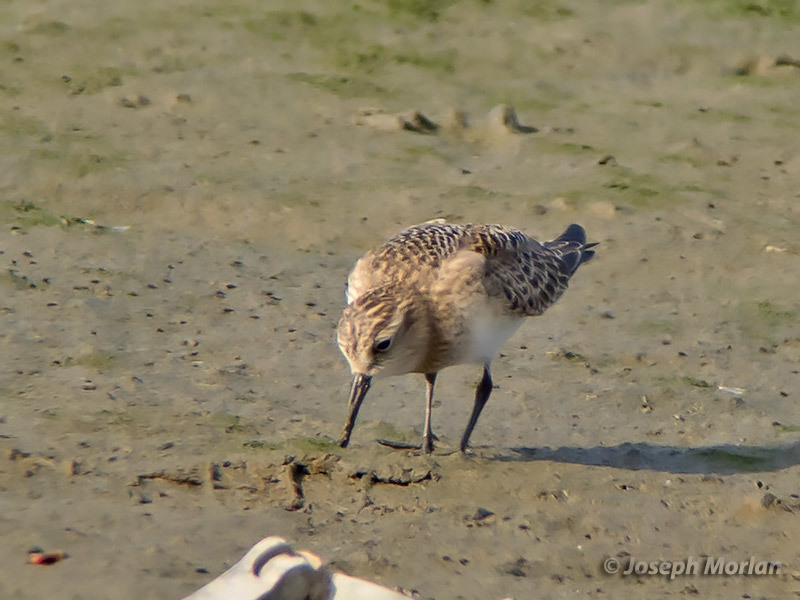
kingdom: Animalia
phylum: Chordata
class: Aves
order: Charadriiformes
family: Scolopacidae
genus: Calidris
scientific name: Calidris bairdii
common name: Baird's sandpiper
